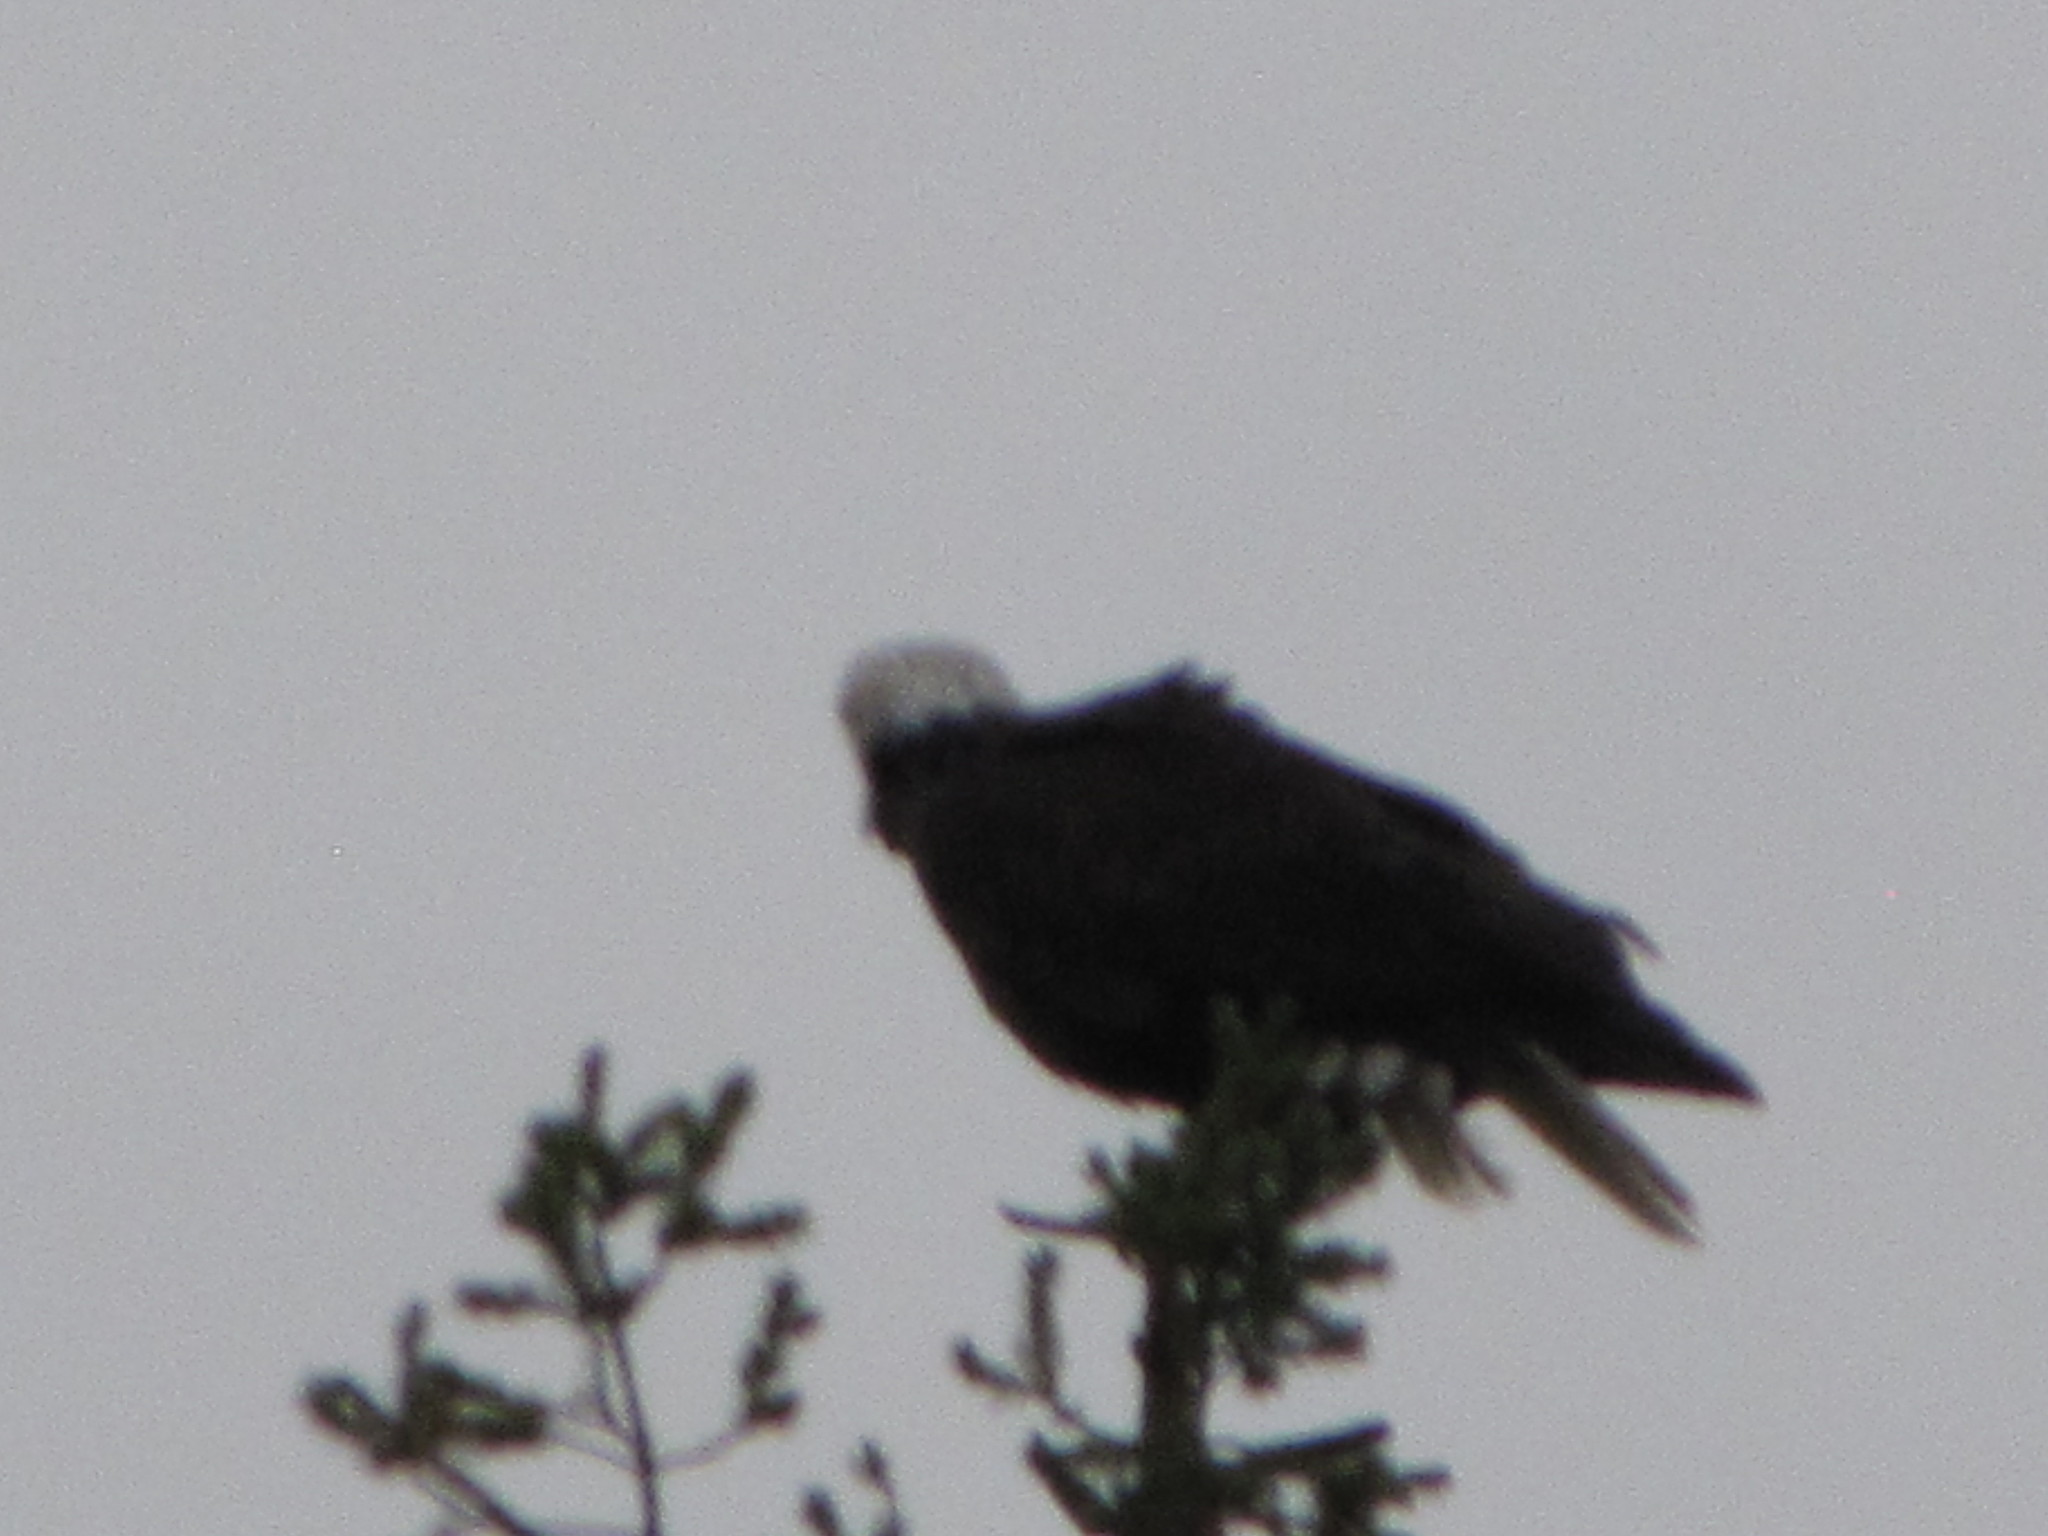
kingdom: Animalia
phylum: Chordata
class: Aves
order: Accipitriformes
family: Accipitridae
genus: Haliaeetus
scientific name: Haliaeetus leucocephalus
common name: Bald eagle
